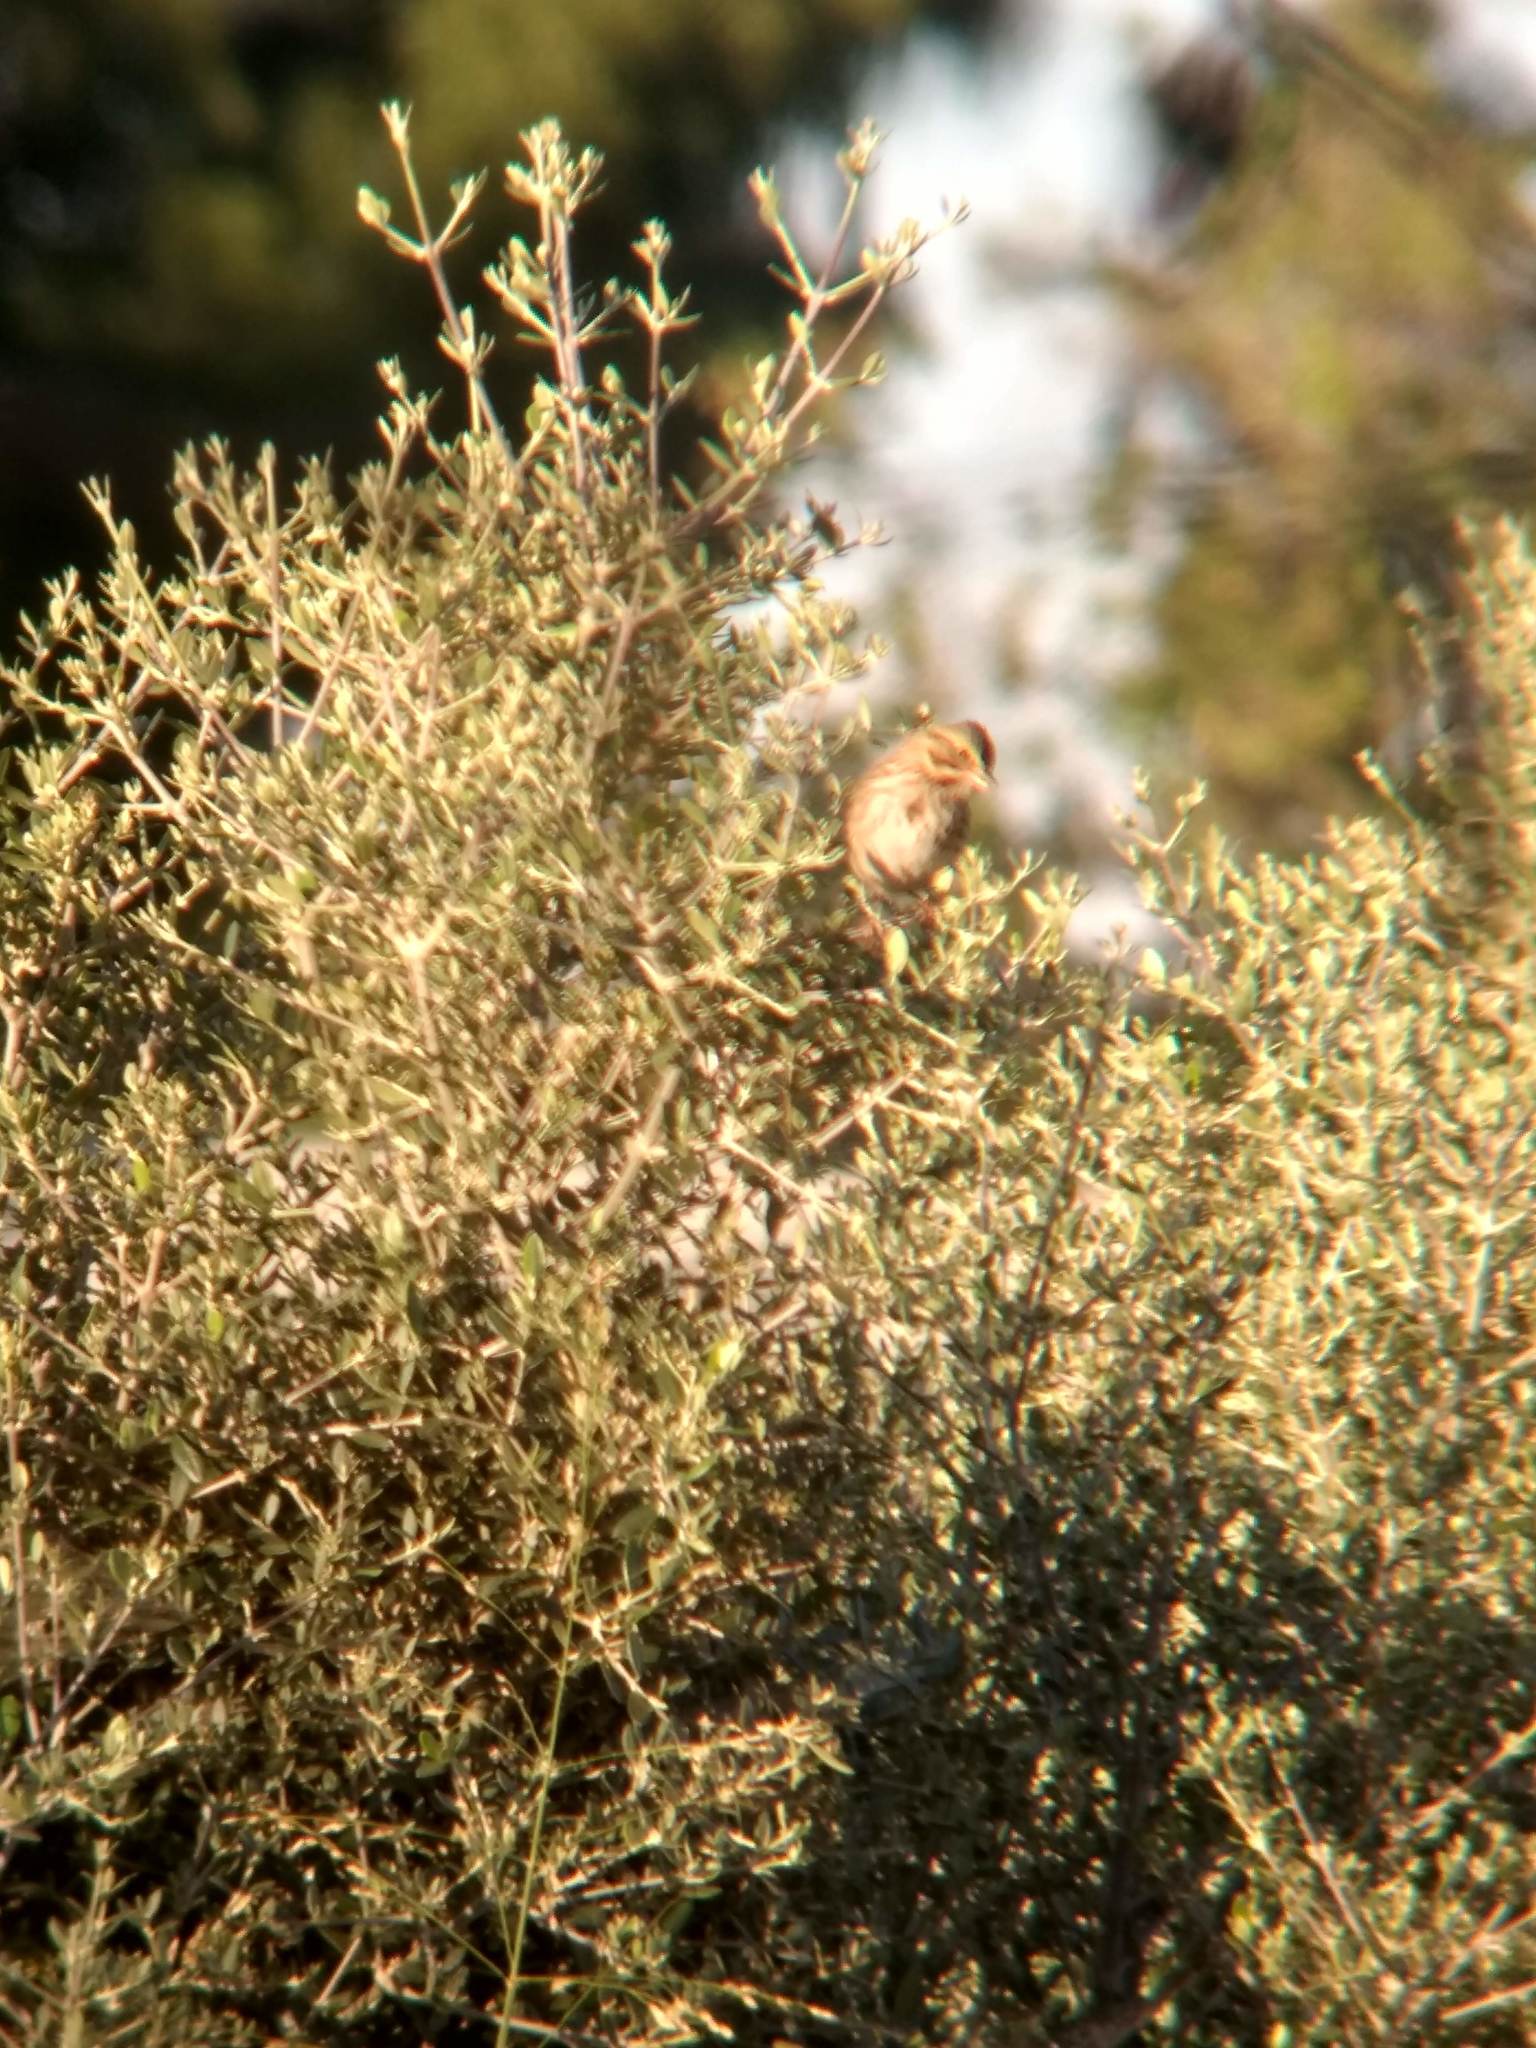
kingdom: Animalia
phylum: Chordata
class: Aves
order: Passeriformes
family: Passerellidae
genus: Passerculus
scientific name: Passerculus sandwichensis
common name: Savannah sparrow
